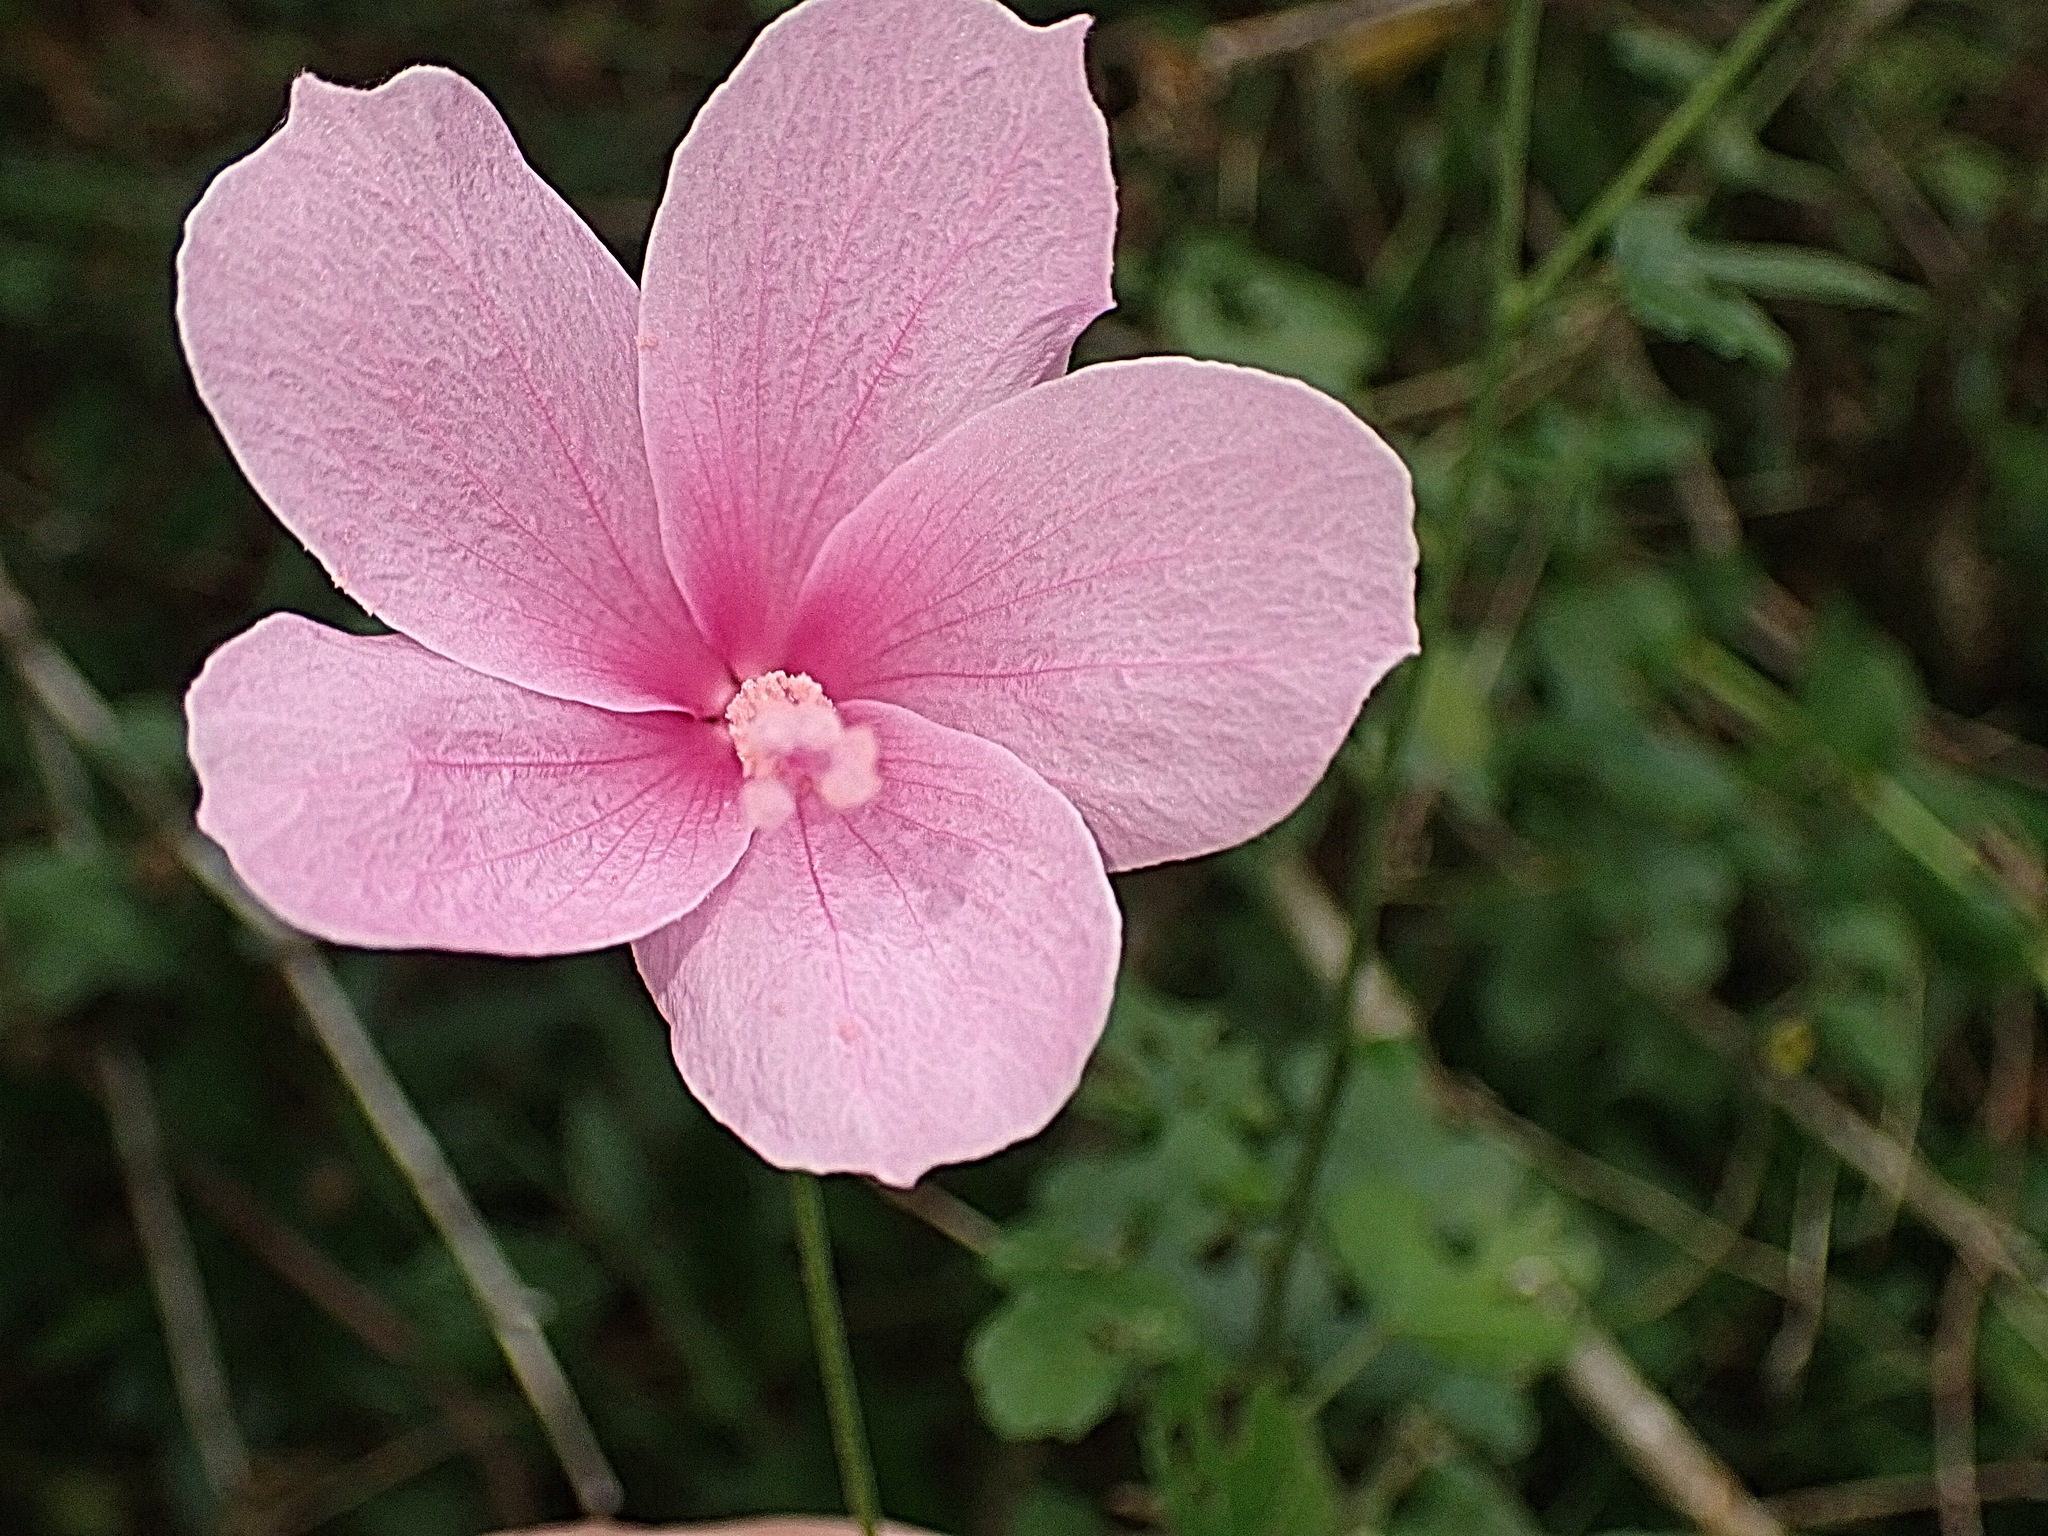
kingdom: Plantae
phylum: Tracheophyta
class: Magnoliopsida
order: Malvales
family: Malvaceae
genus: Hibiscus
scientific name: Hibiscus pedunculatus
